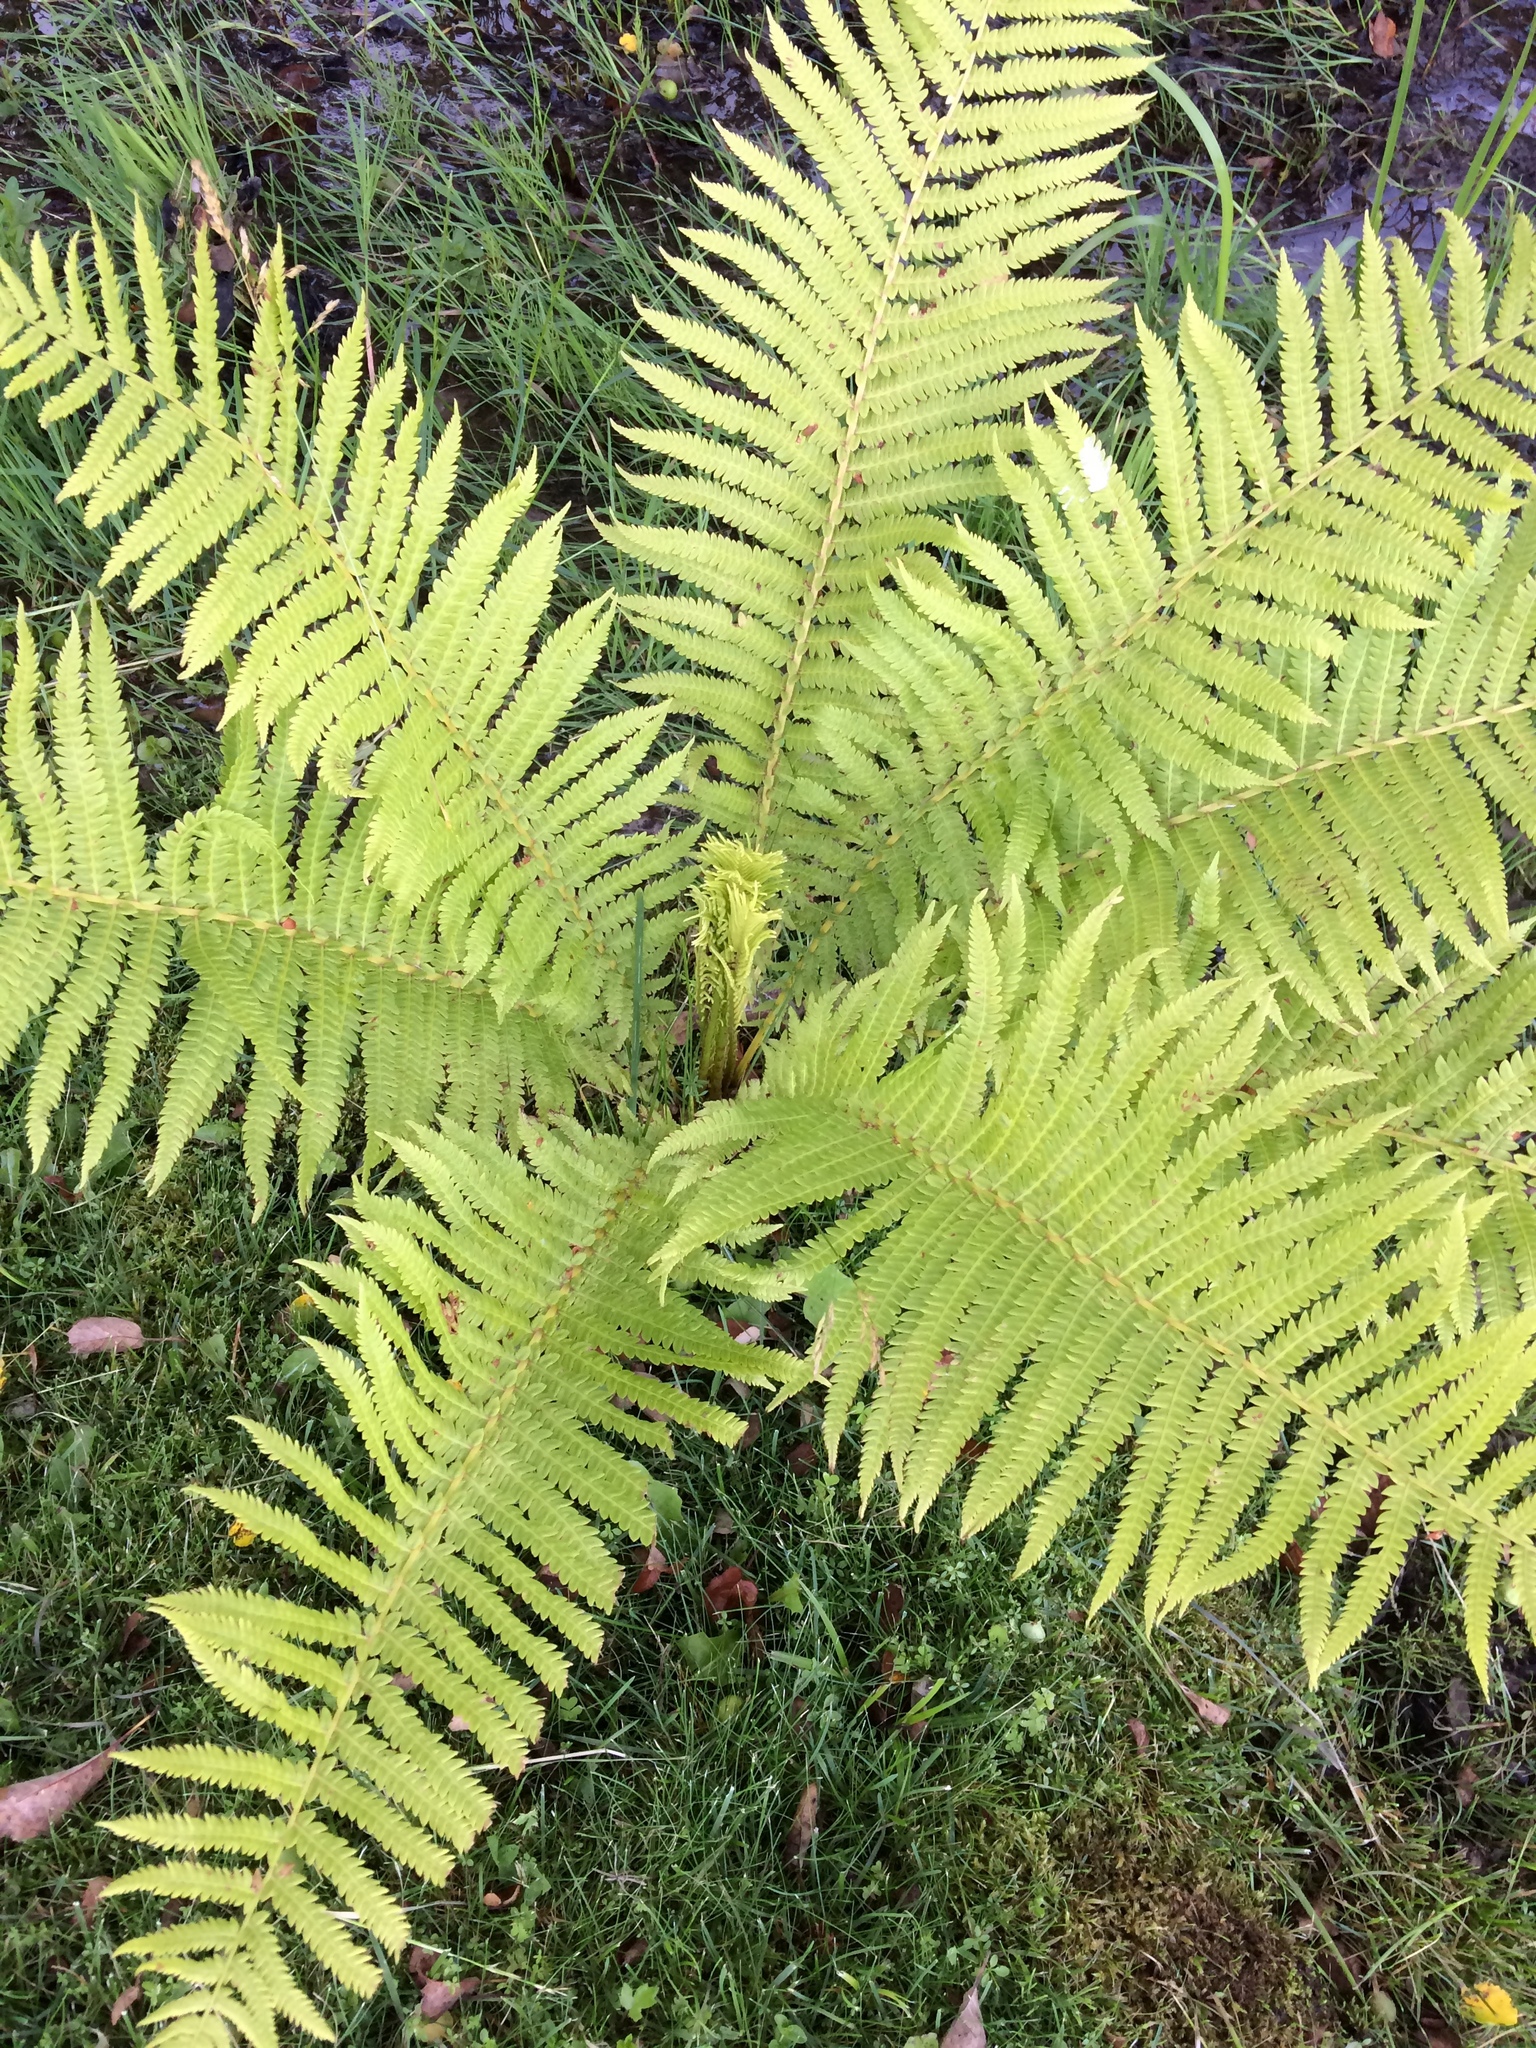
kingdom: Plantae
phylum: Tracheophyta
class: Polypodiopsida
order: Polypodiales
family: Onocleaceae
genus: Matteuccia
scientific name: Matteuccia struthiopteris
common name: Ostrich fern
